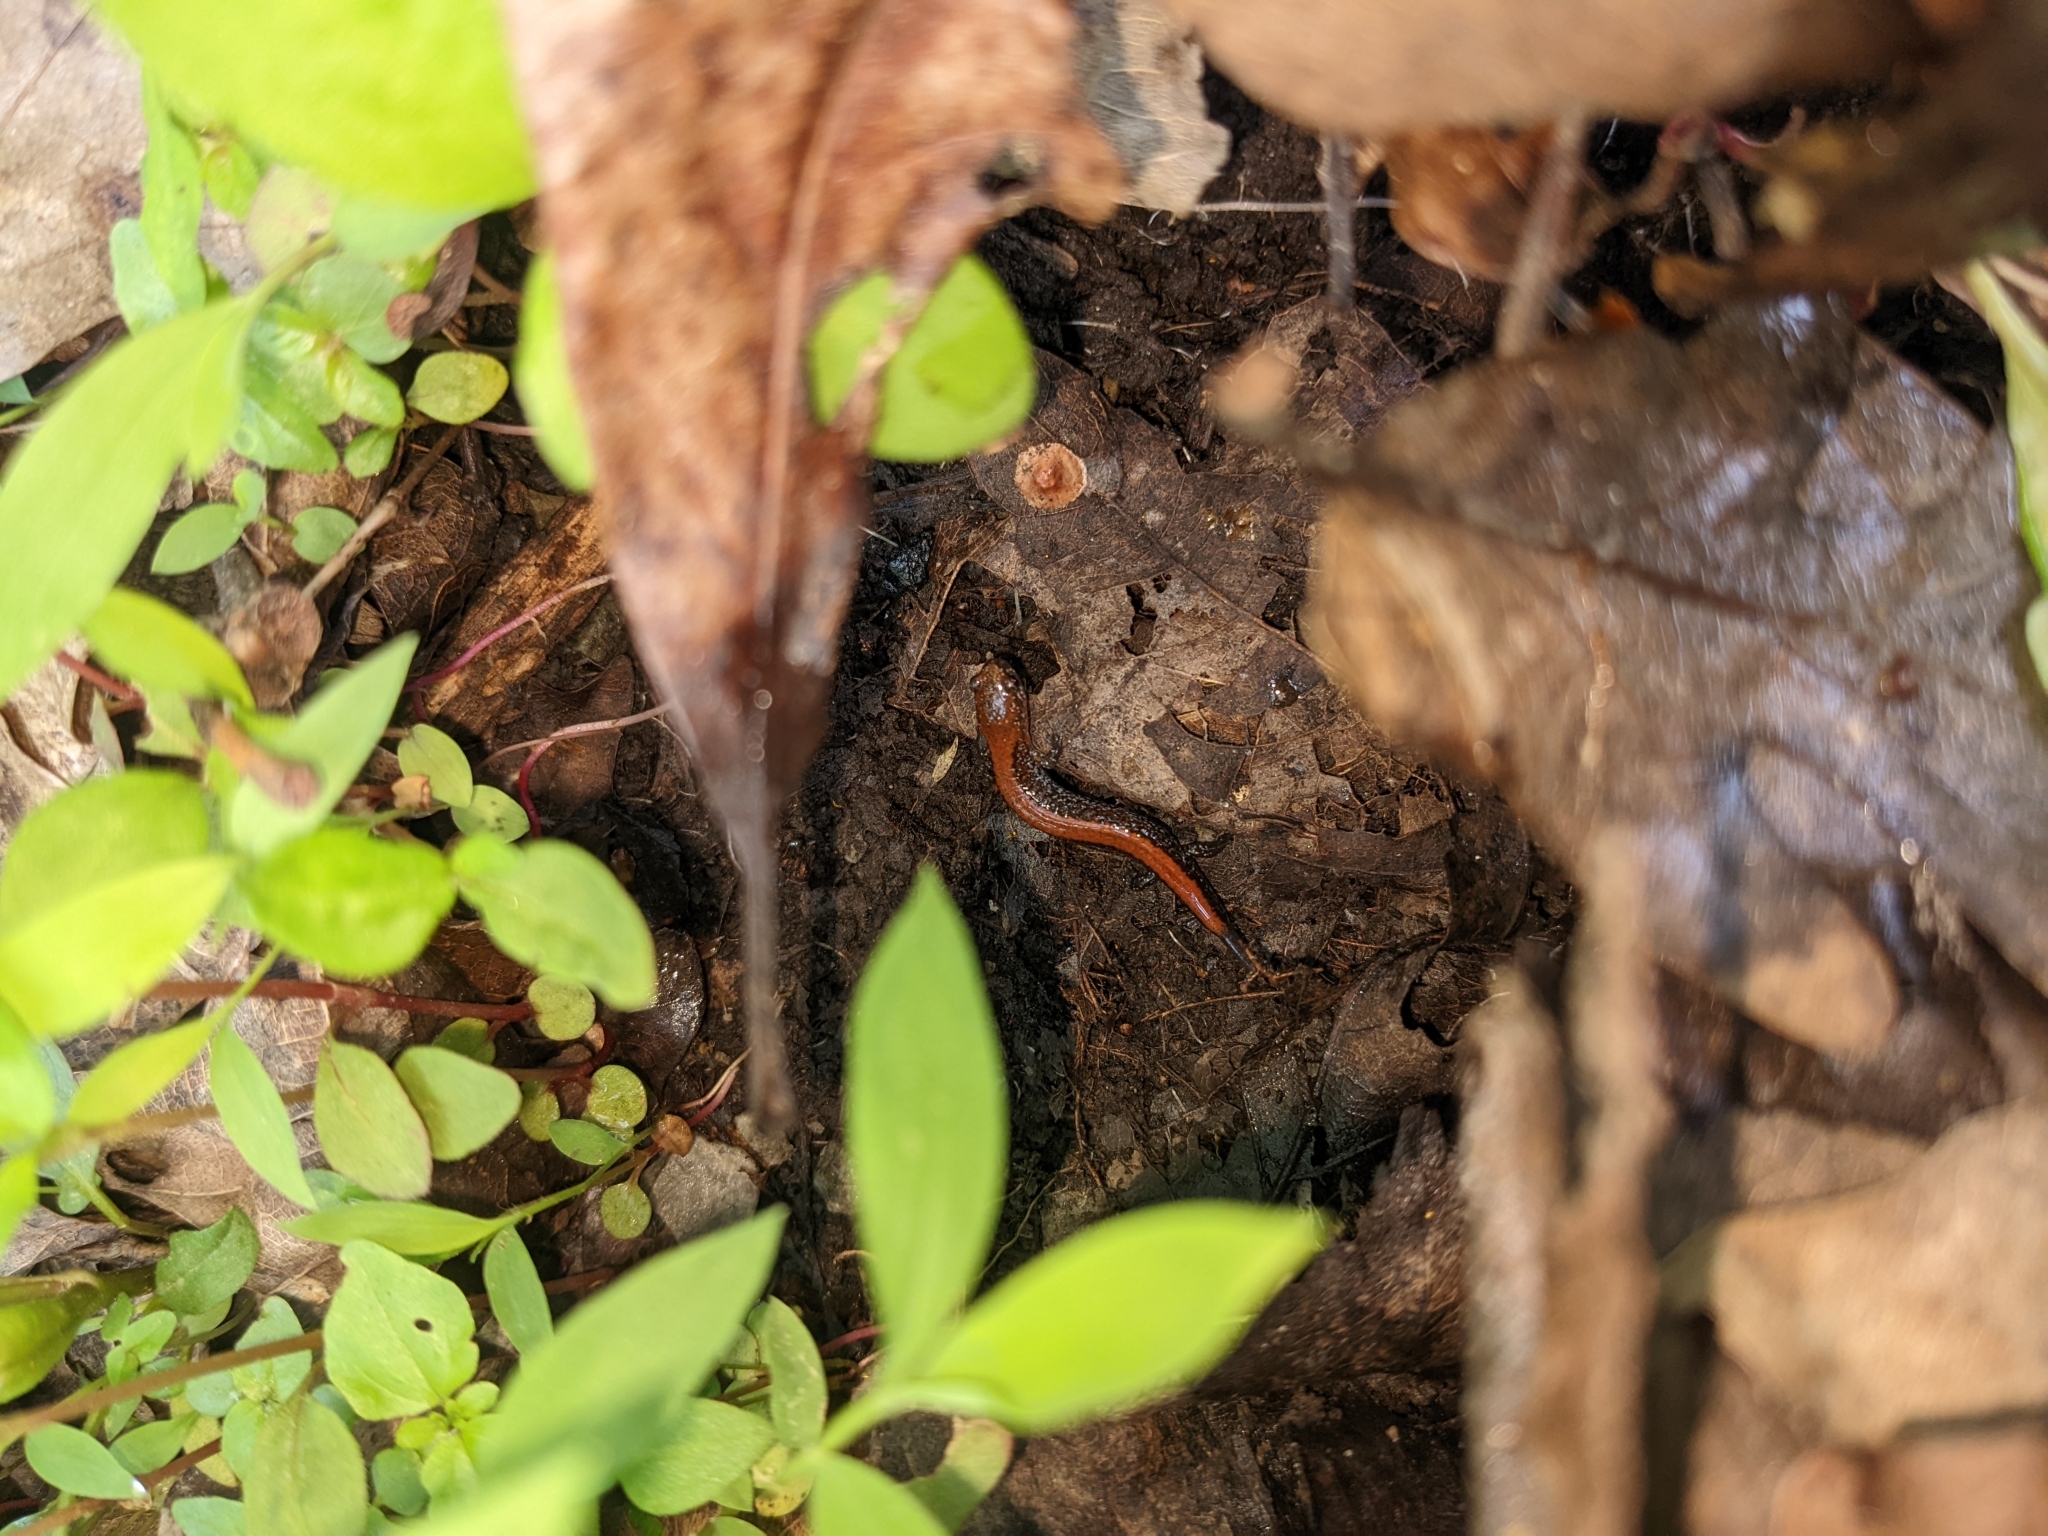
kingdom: Animalia
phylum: Chordata
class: Amphibia
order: Caudata
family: Plethodontidae
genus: Plethodon
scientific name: Plethodon cinereus
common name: Redback salamander
